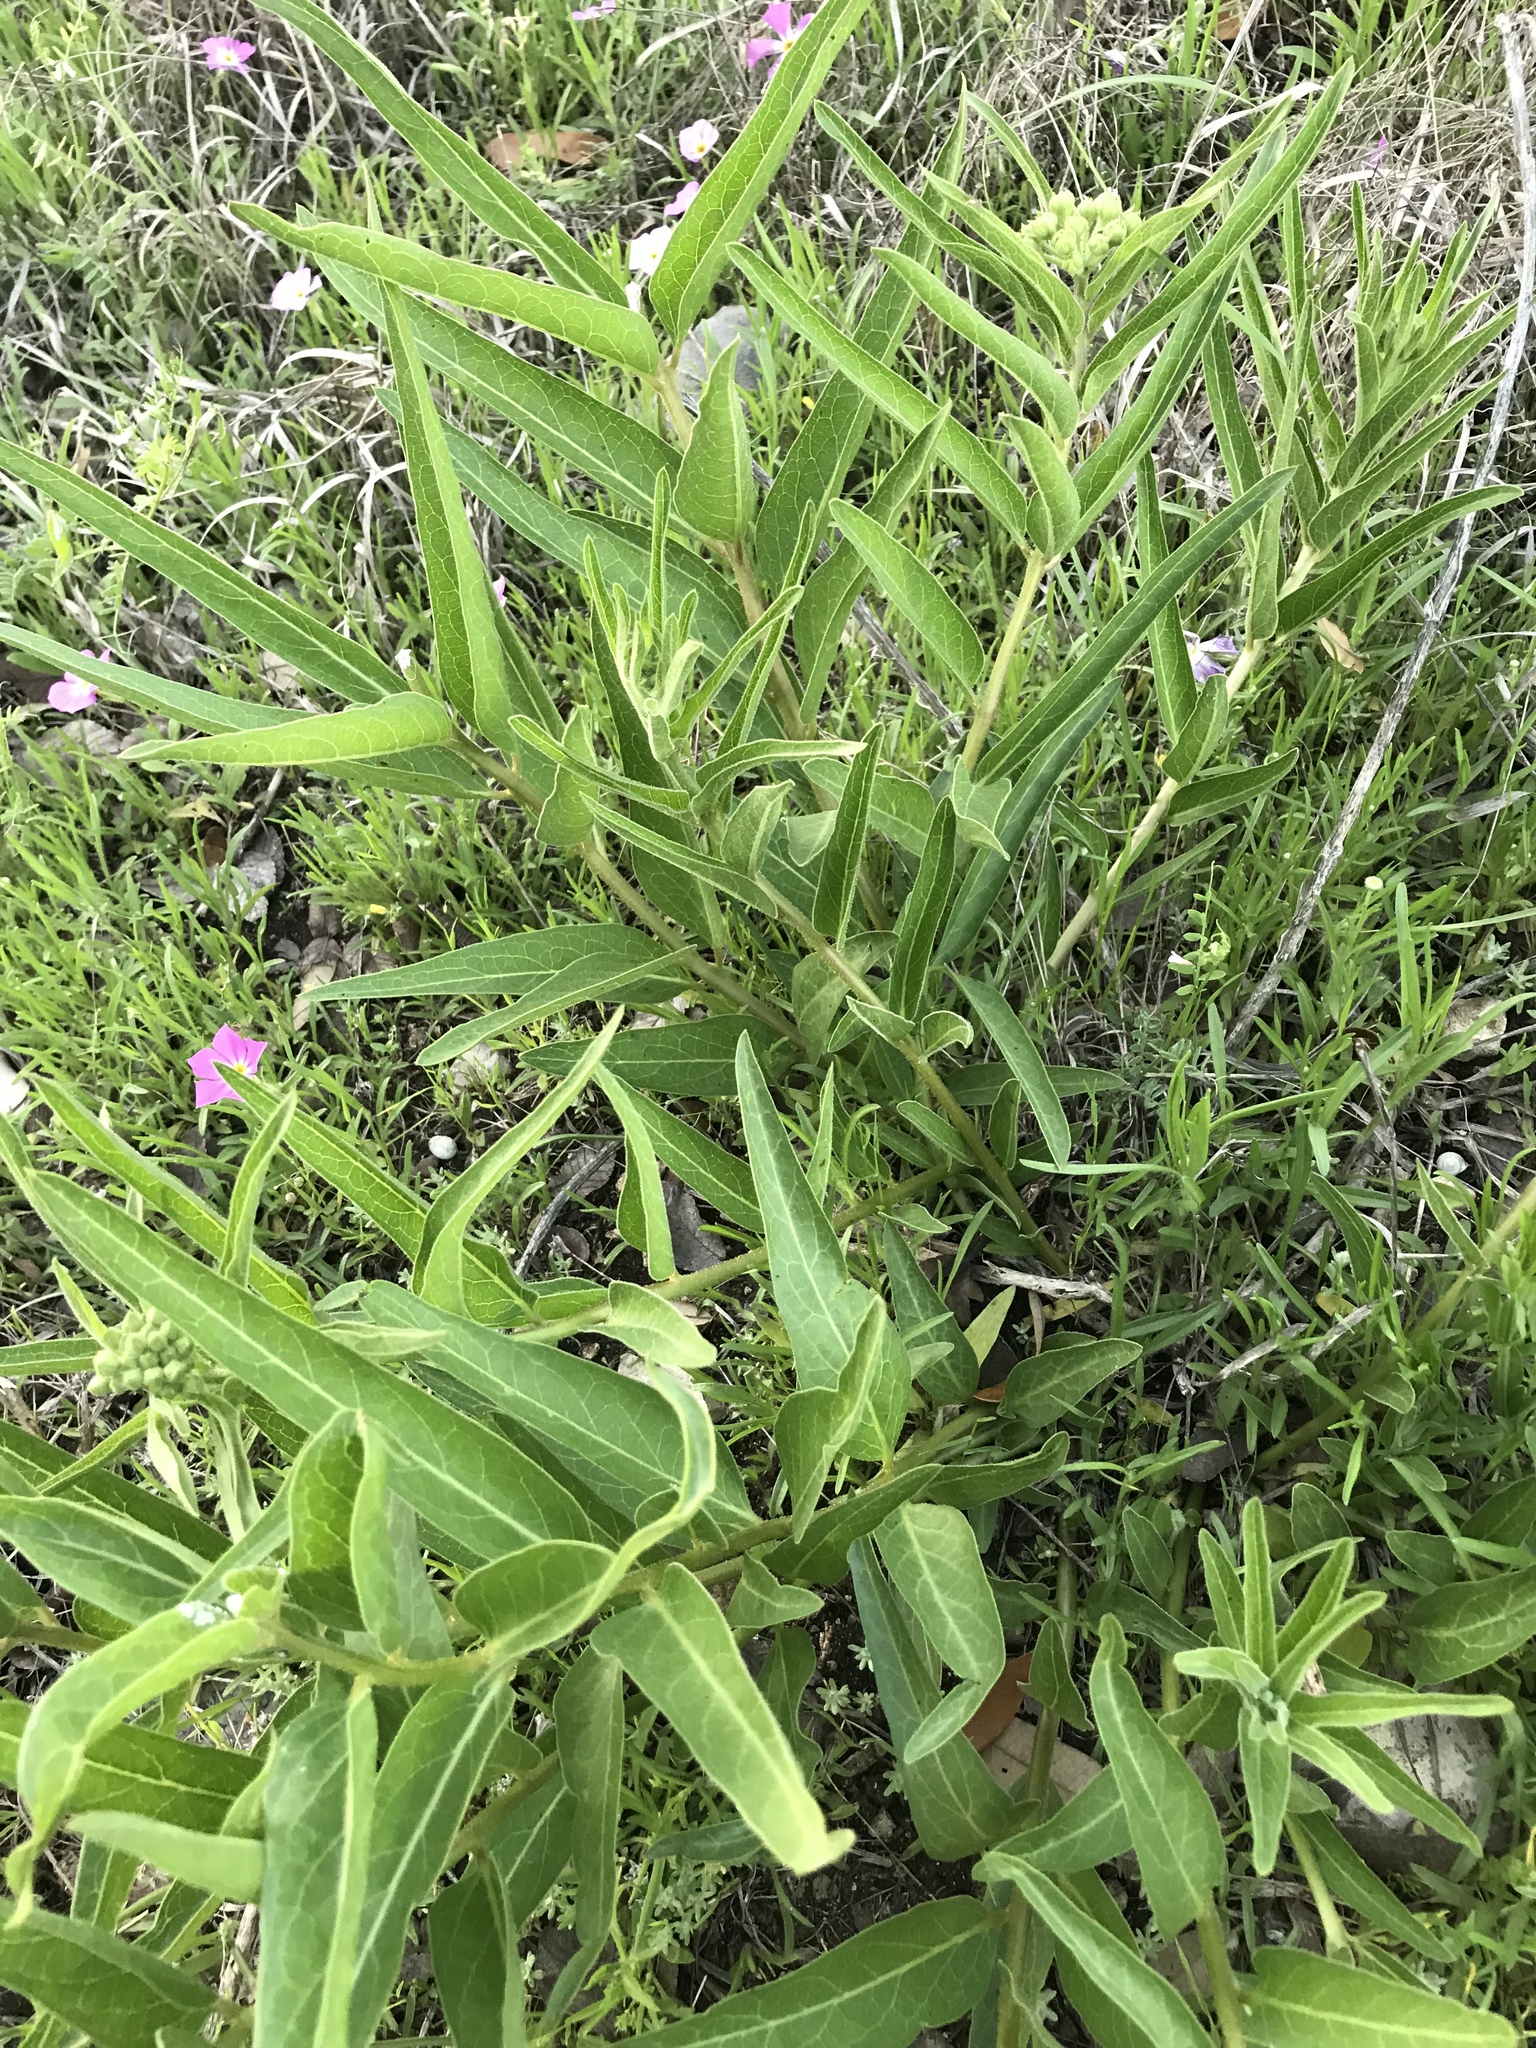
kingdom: Plantae
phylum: Tracheophyta
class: Magnoliopsida
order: Gentianales
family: Apocynaceae
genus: Asclepias
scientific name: Asclepias asperula
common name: Antelope horns
